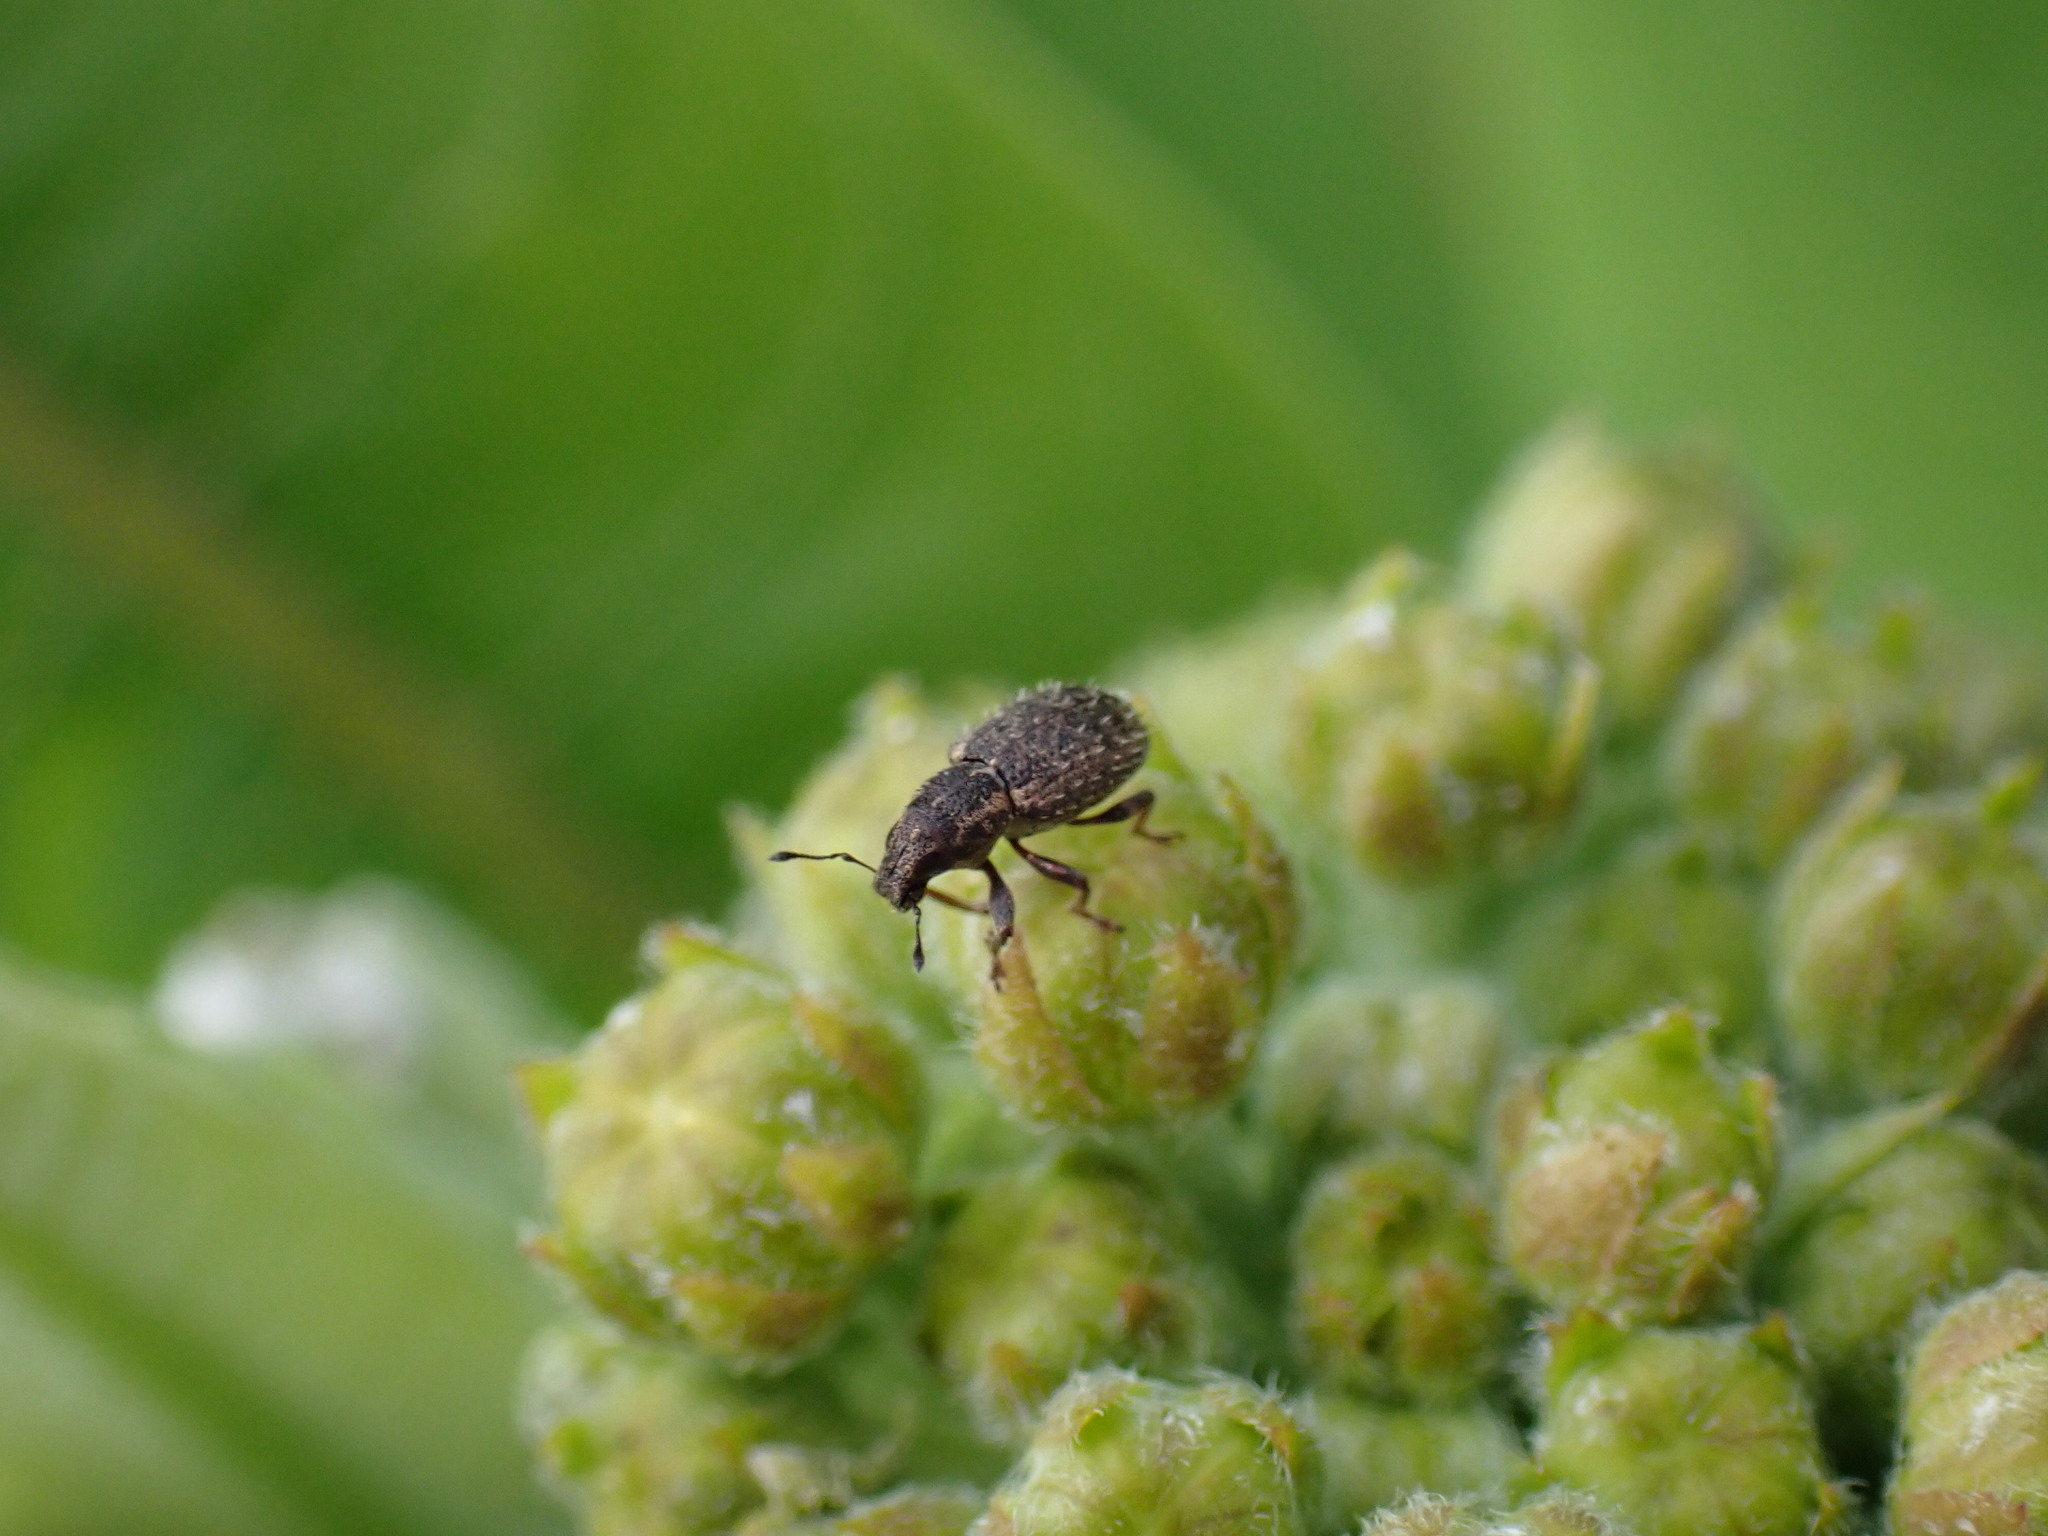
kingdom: Animalia
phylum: Arthropoda
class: Insecta
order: Coleoptera
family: Curculionidae
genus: Sitona
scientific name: Sitona hispidulus
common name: Clover weevil
